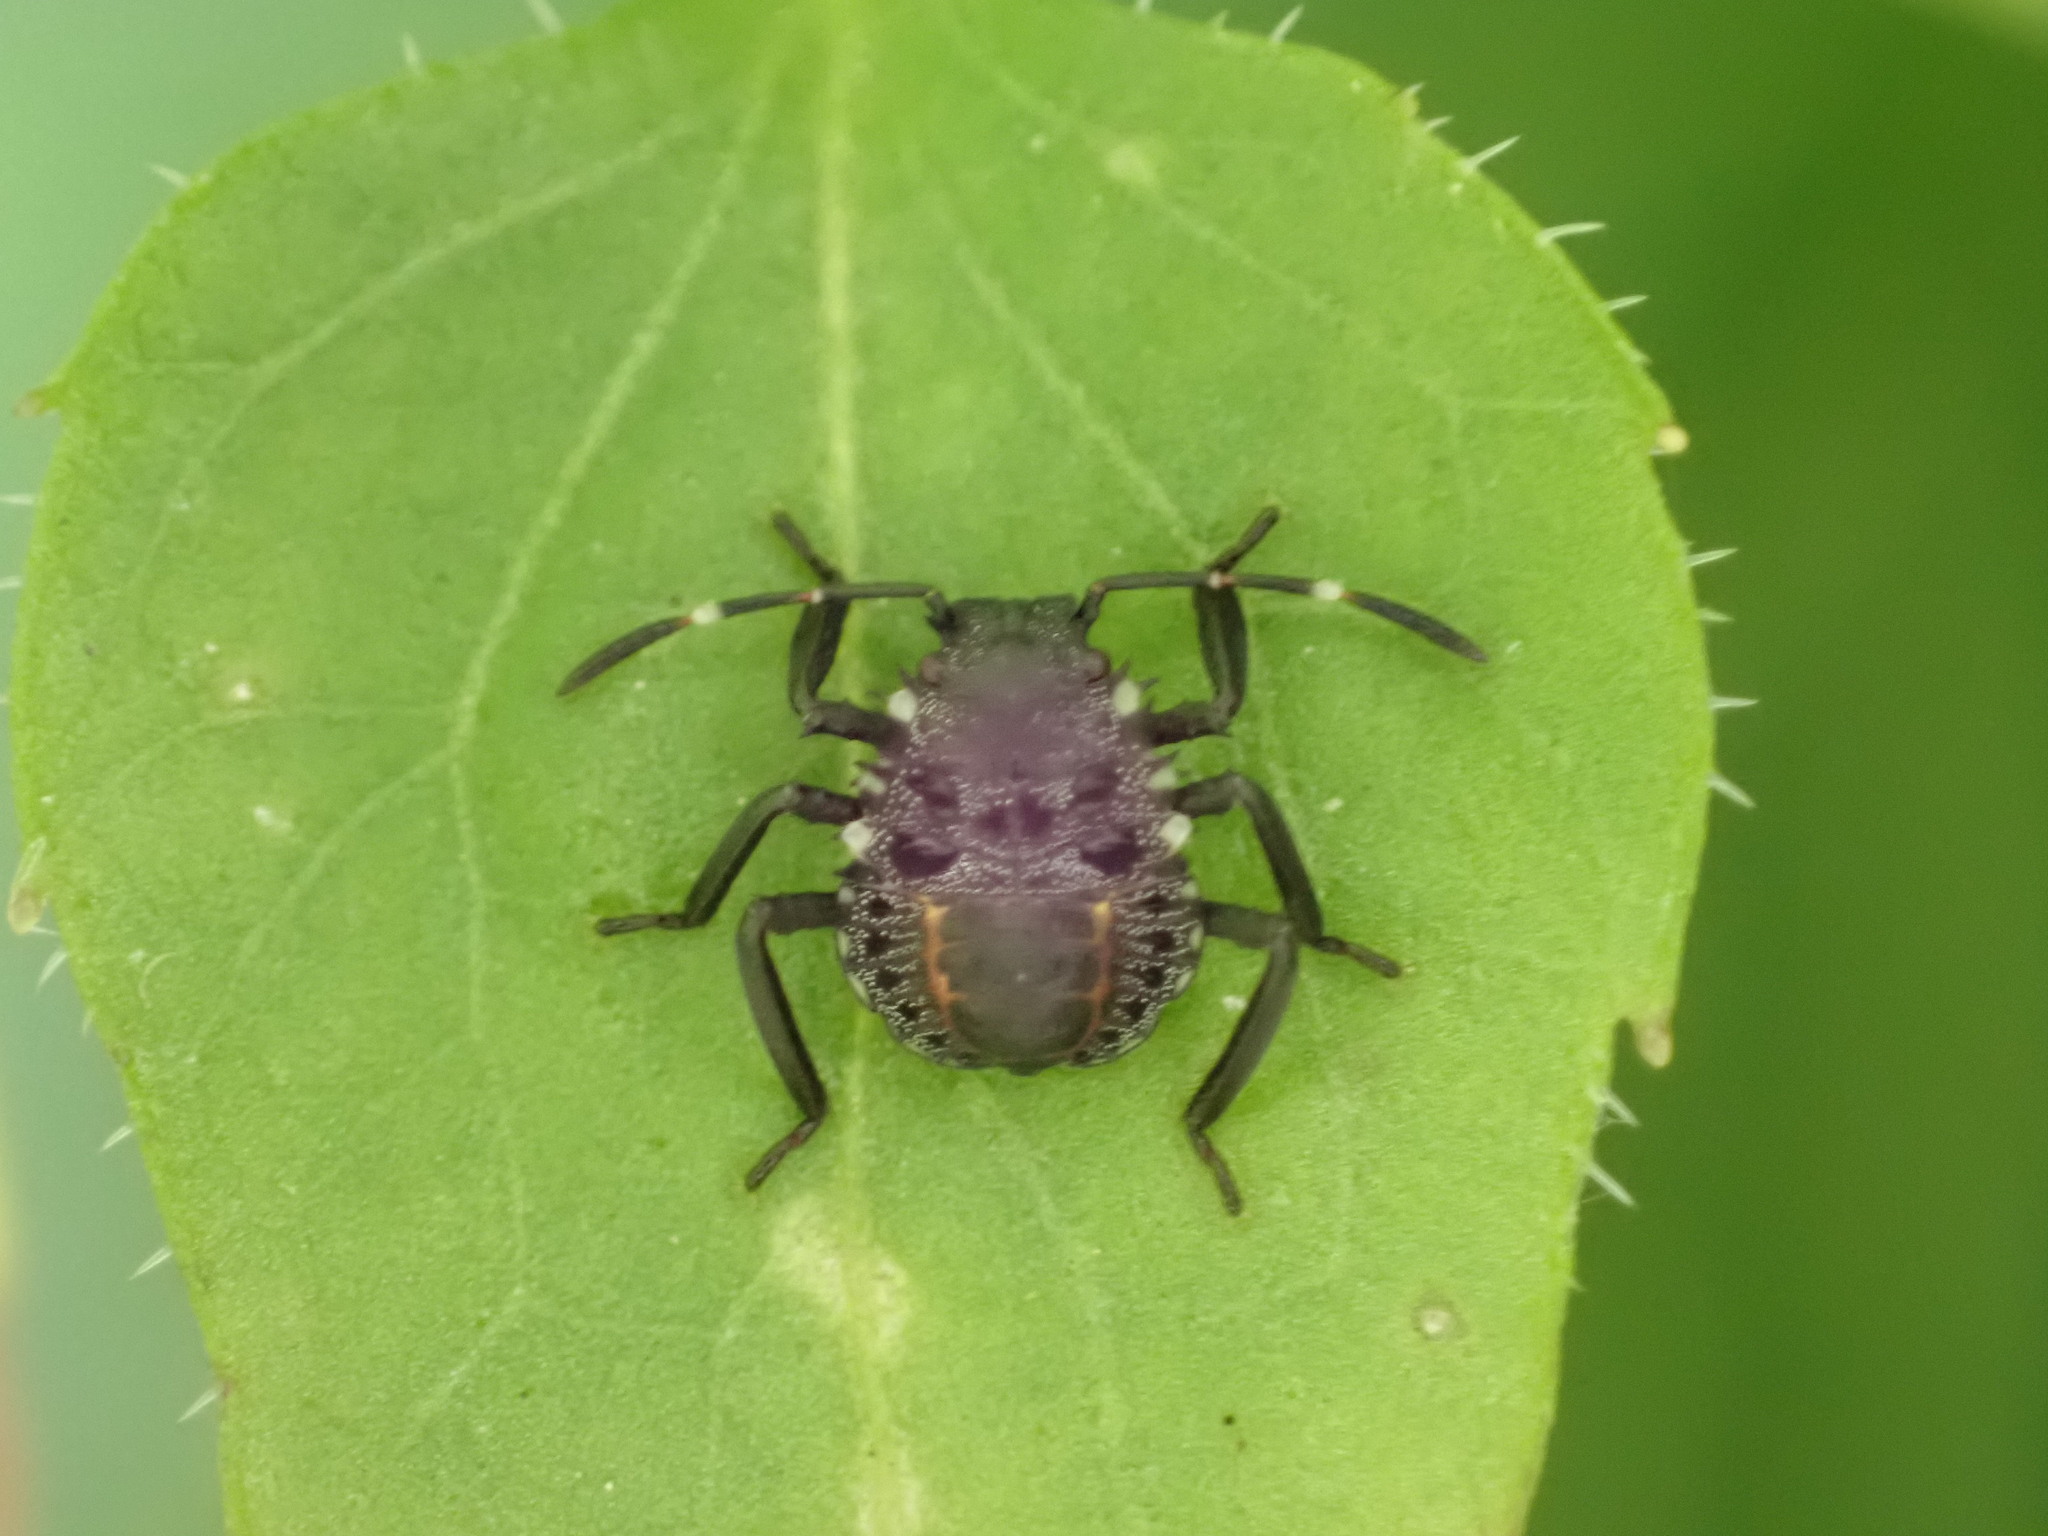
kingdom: Animalia
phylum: Arthropoda
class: Insecta
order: Hemiptera
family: Pentatomidae
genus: Halyomorpha
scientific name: Halyomorpha halys
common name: Brown marmorated stink bug
